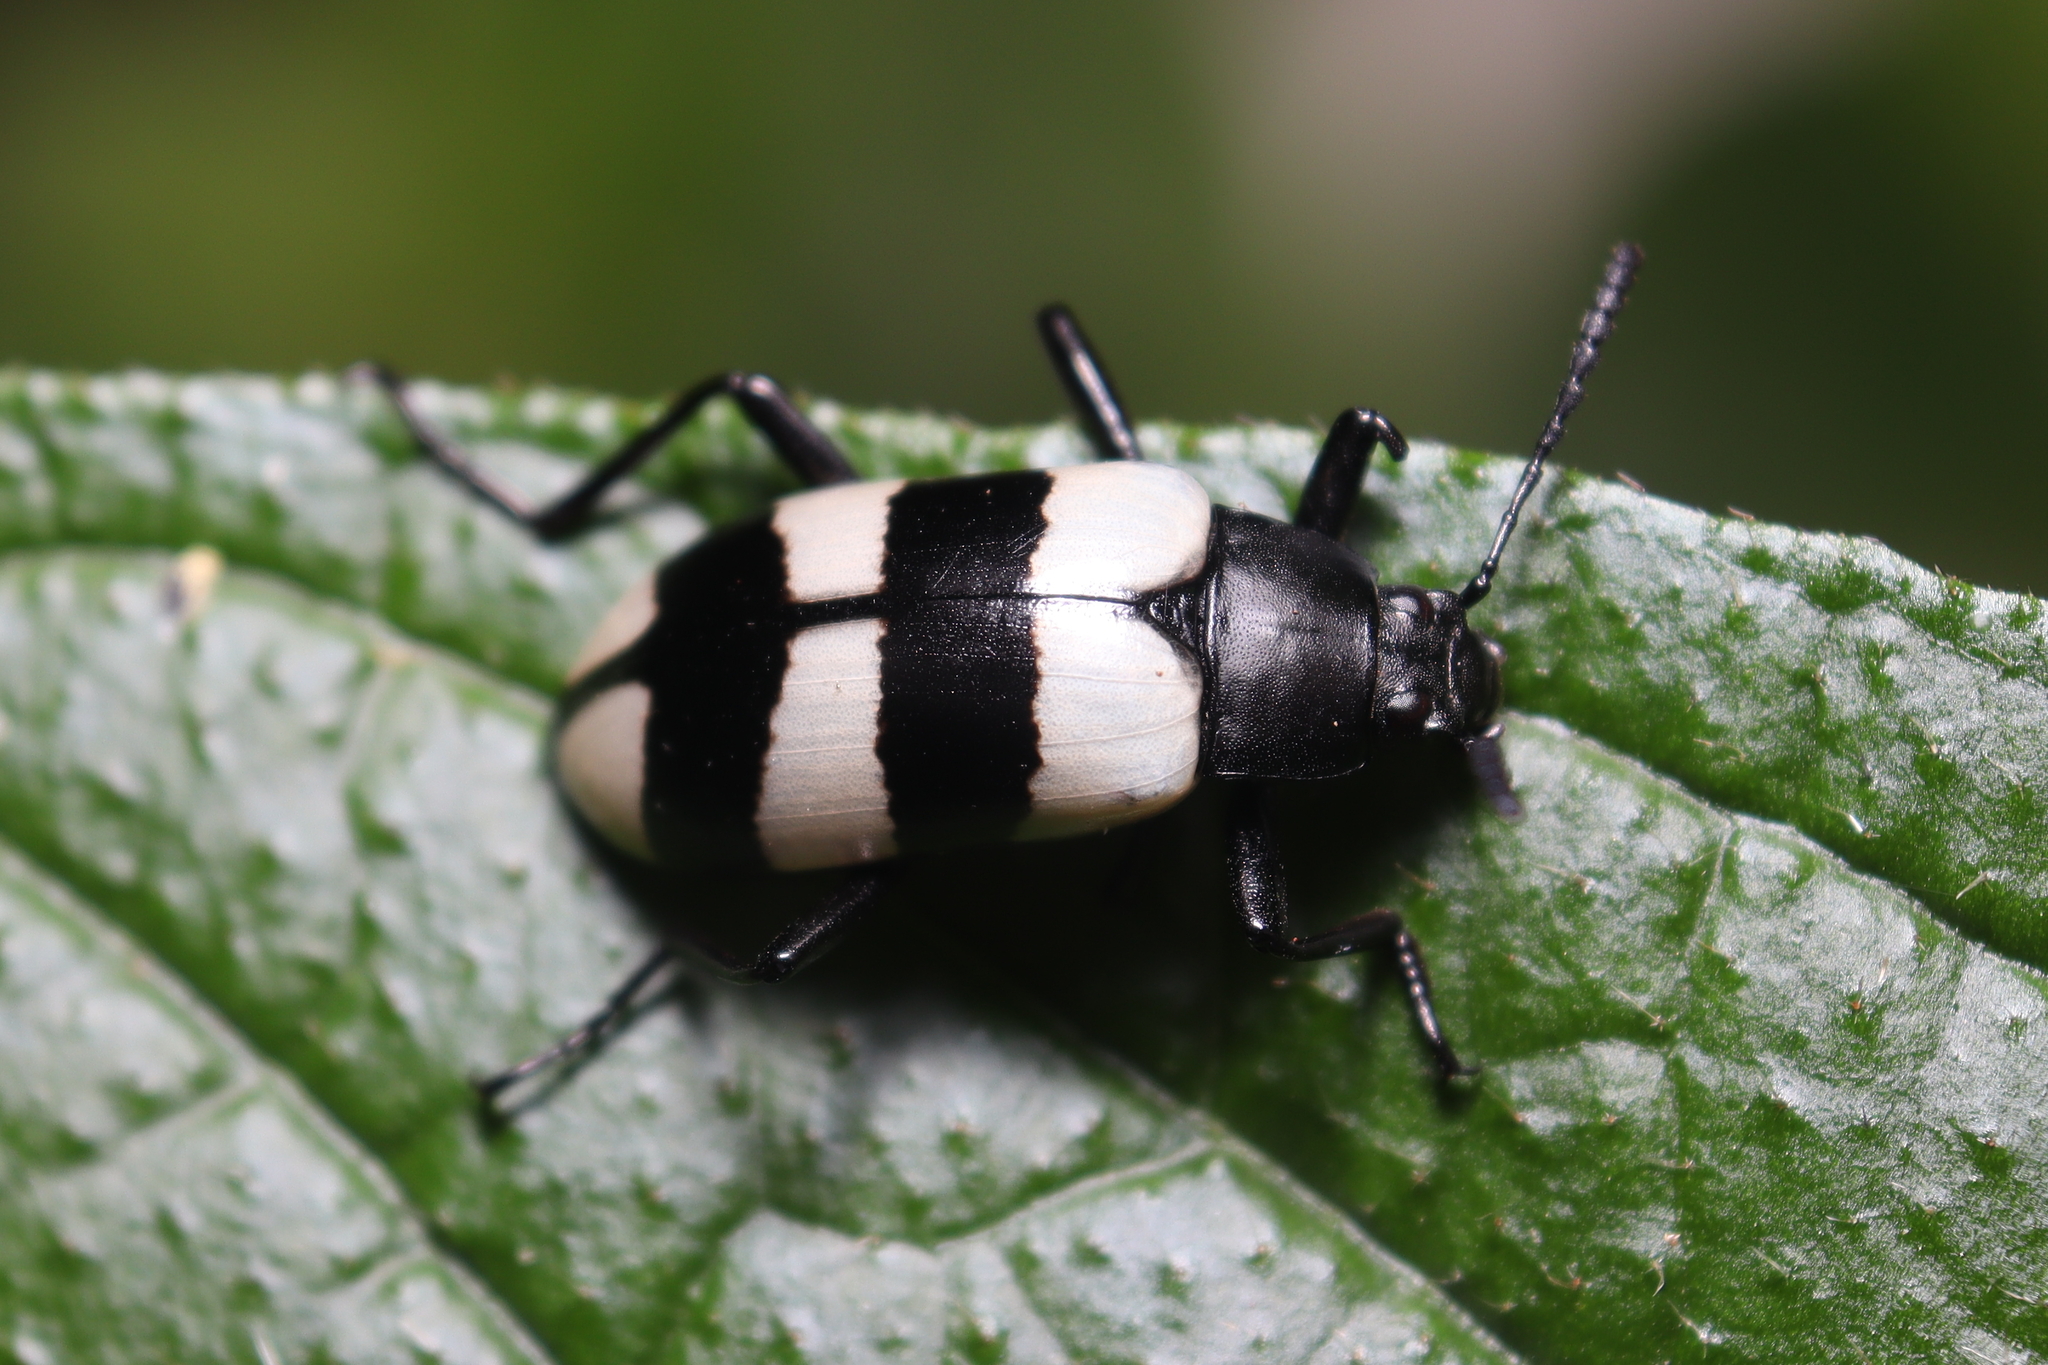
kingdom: Animalia
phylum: Arthropoda
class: Insecta
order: Coleoptera
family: Tenebrionidae
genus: Poecilesthus
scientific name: Poecilesthus
